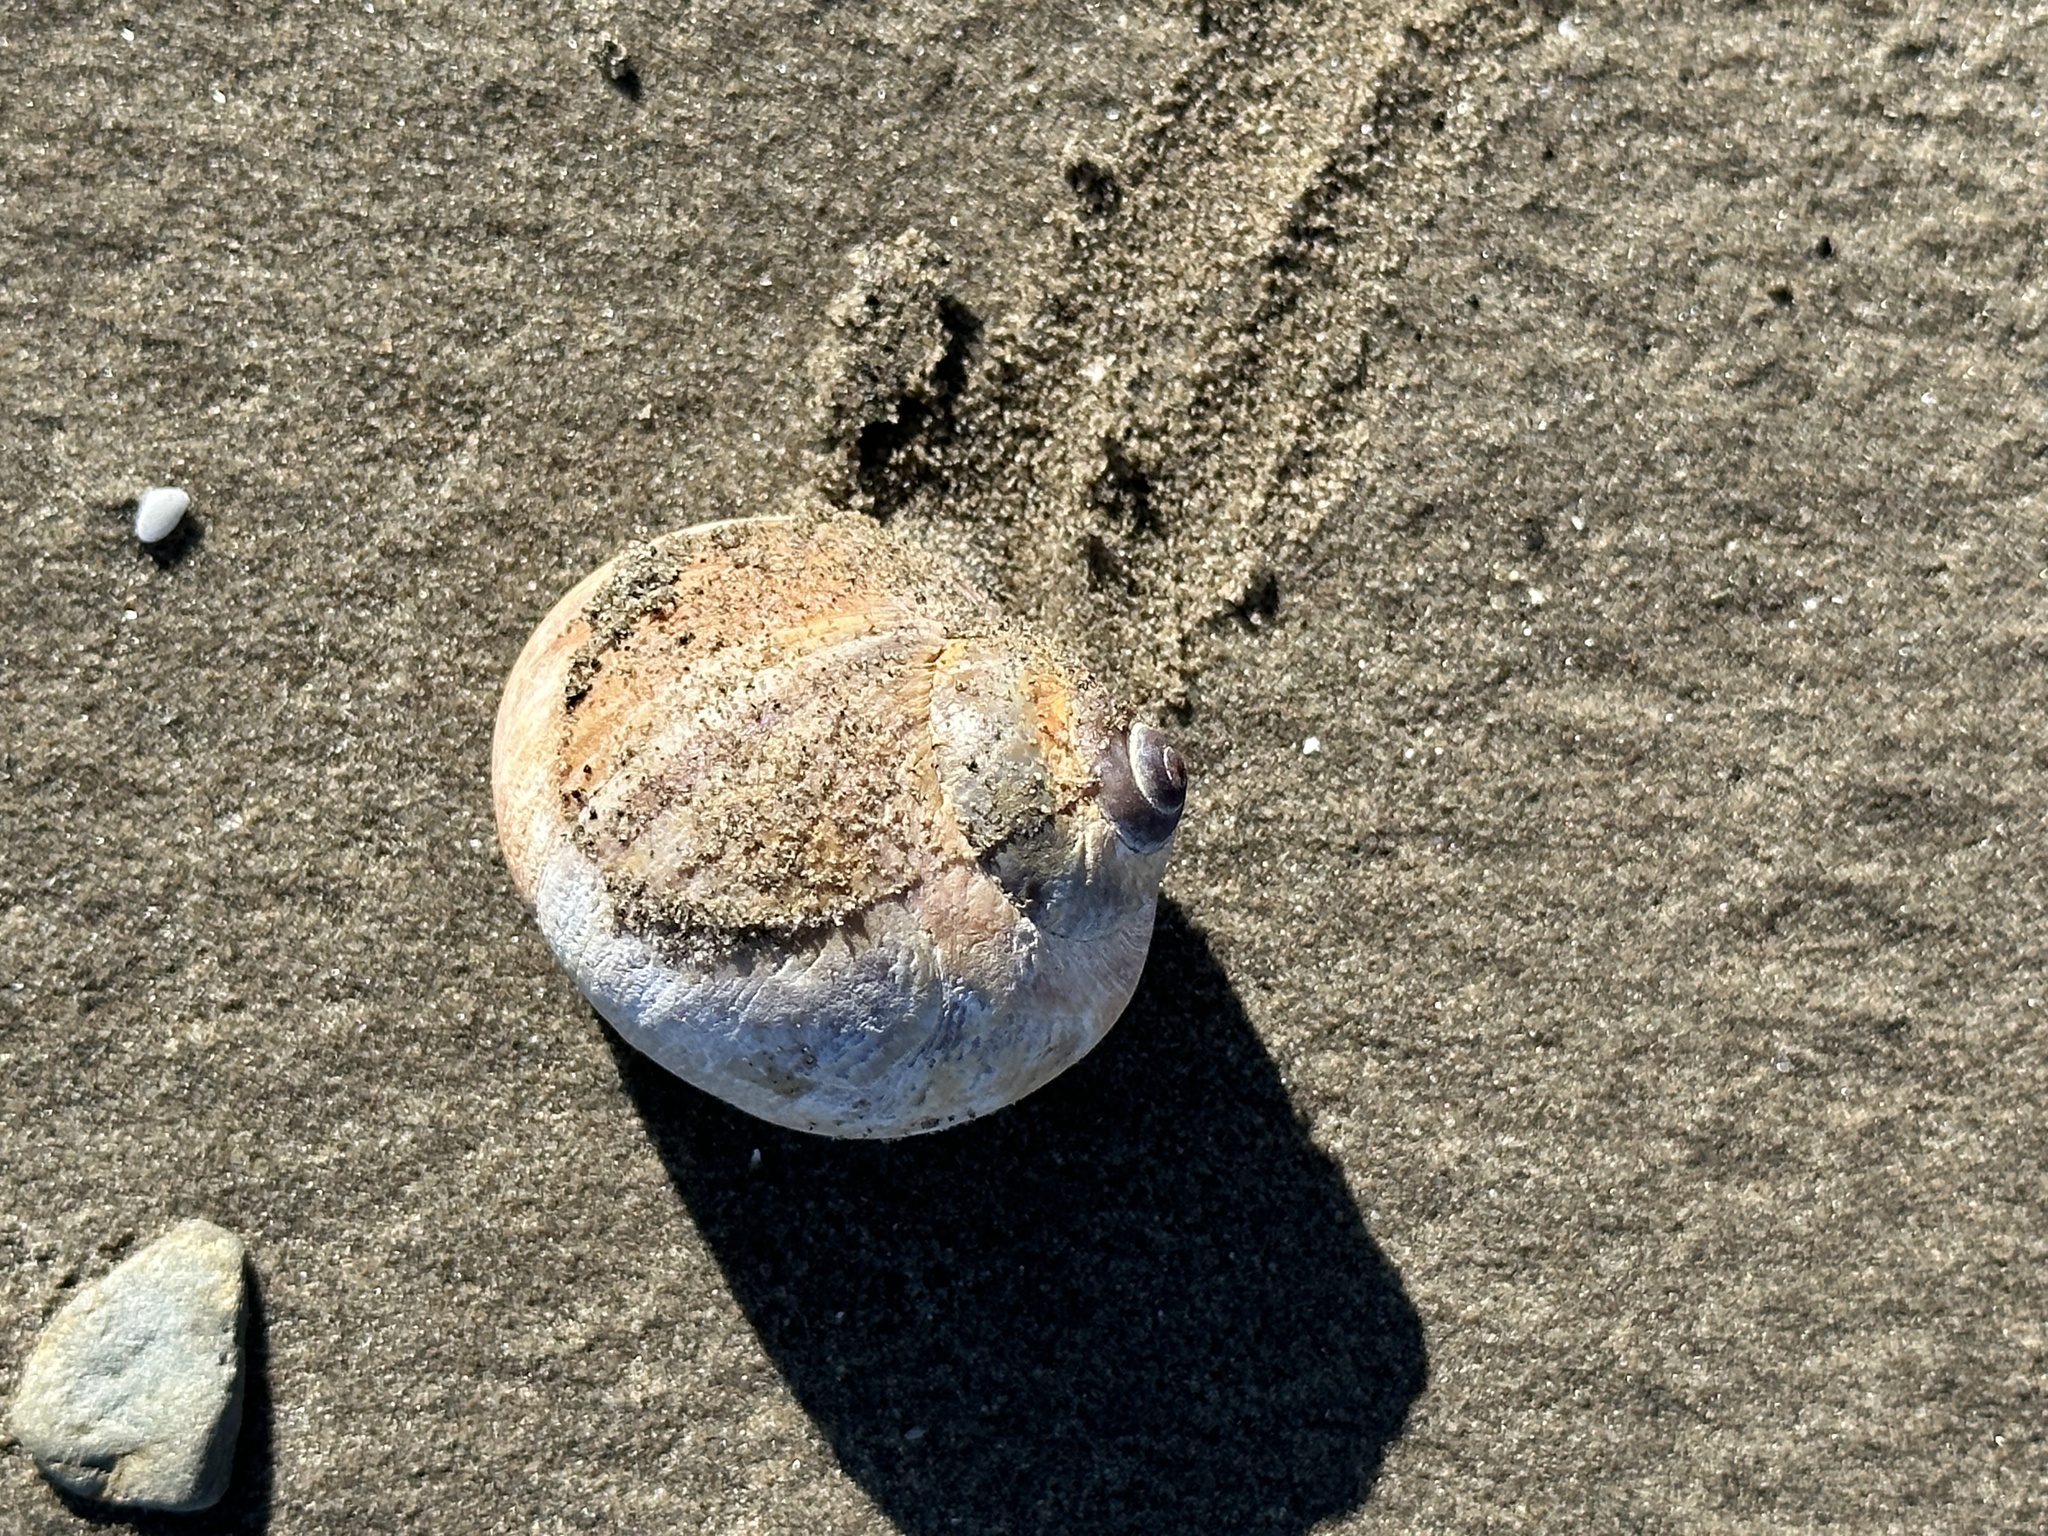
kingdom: Animalia
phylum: Mollusca
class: Gastropoda
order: Littorinimorpha
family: Naticidae
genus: Euspira
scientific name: Euspira heros
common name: Common northern moonsnail
